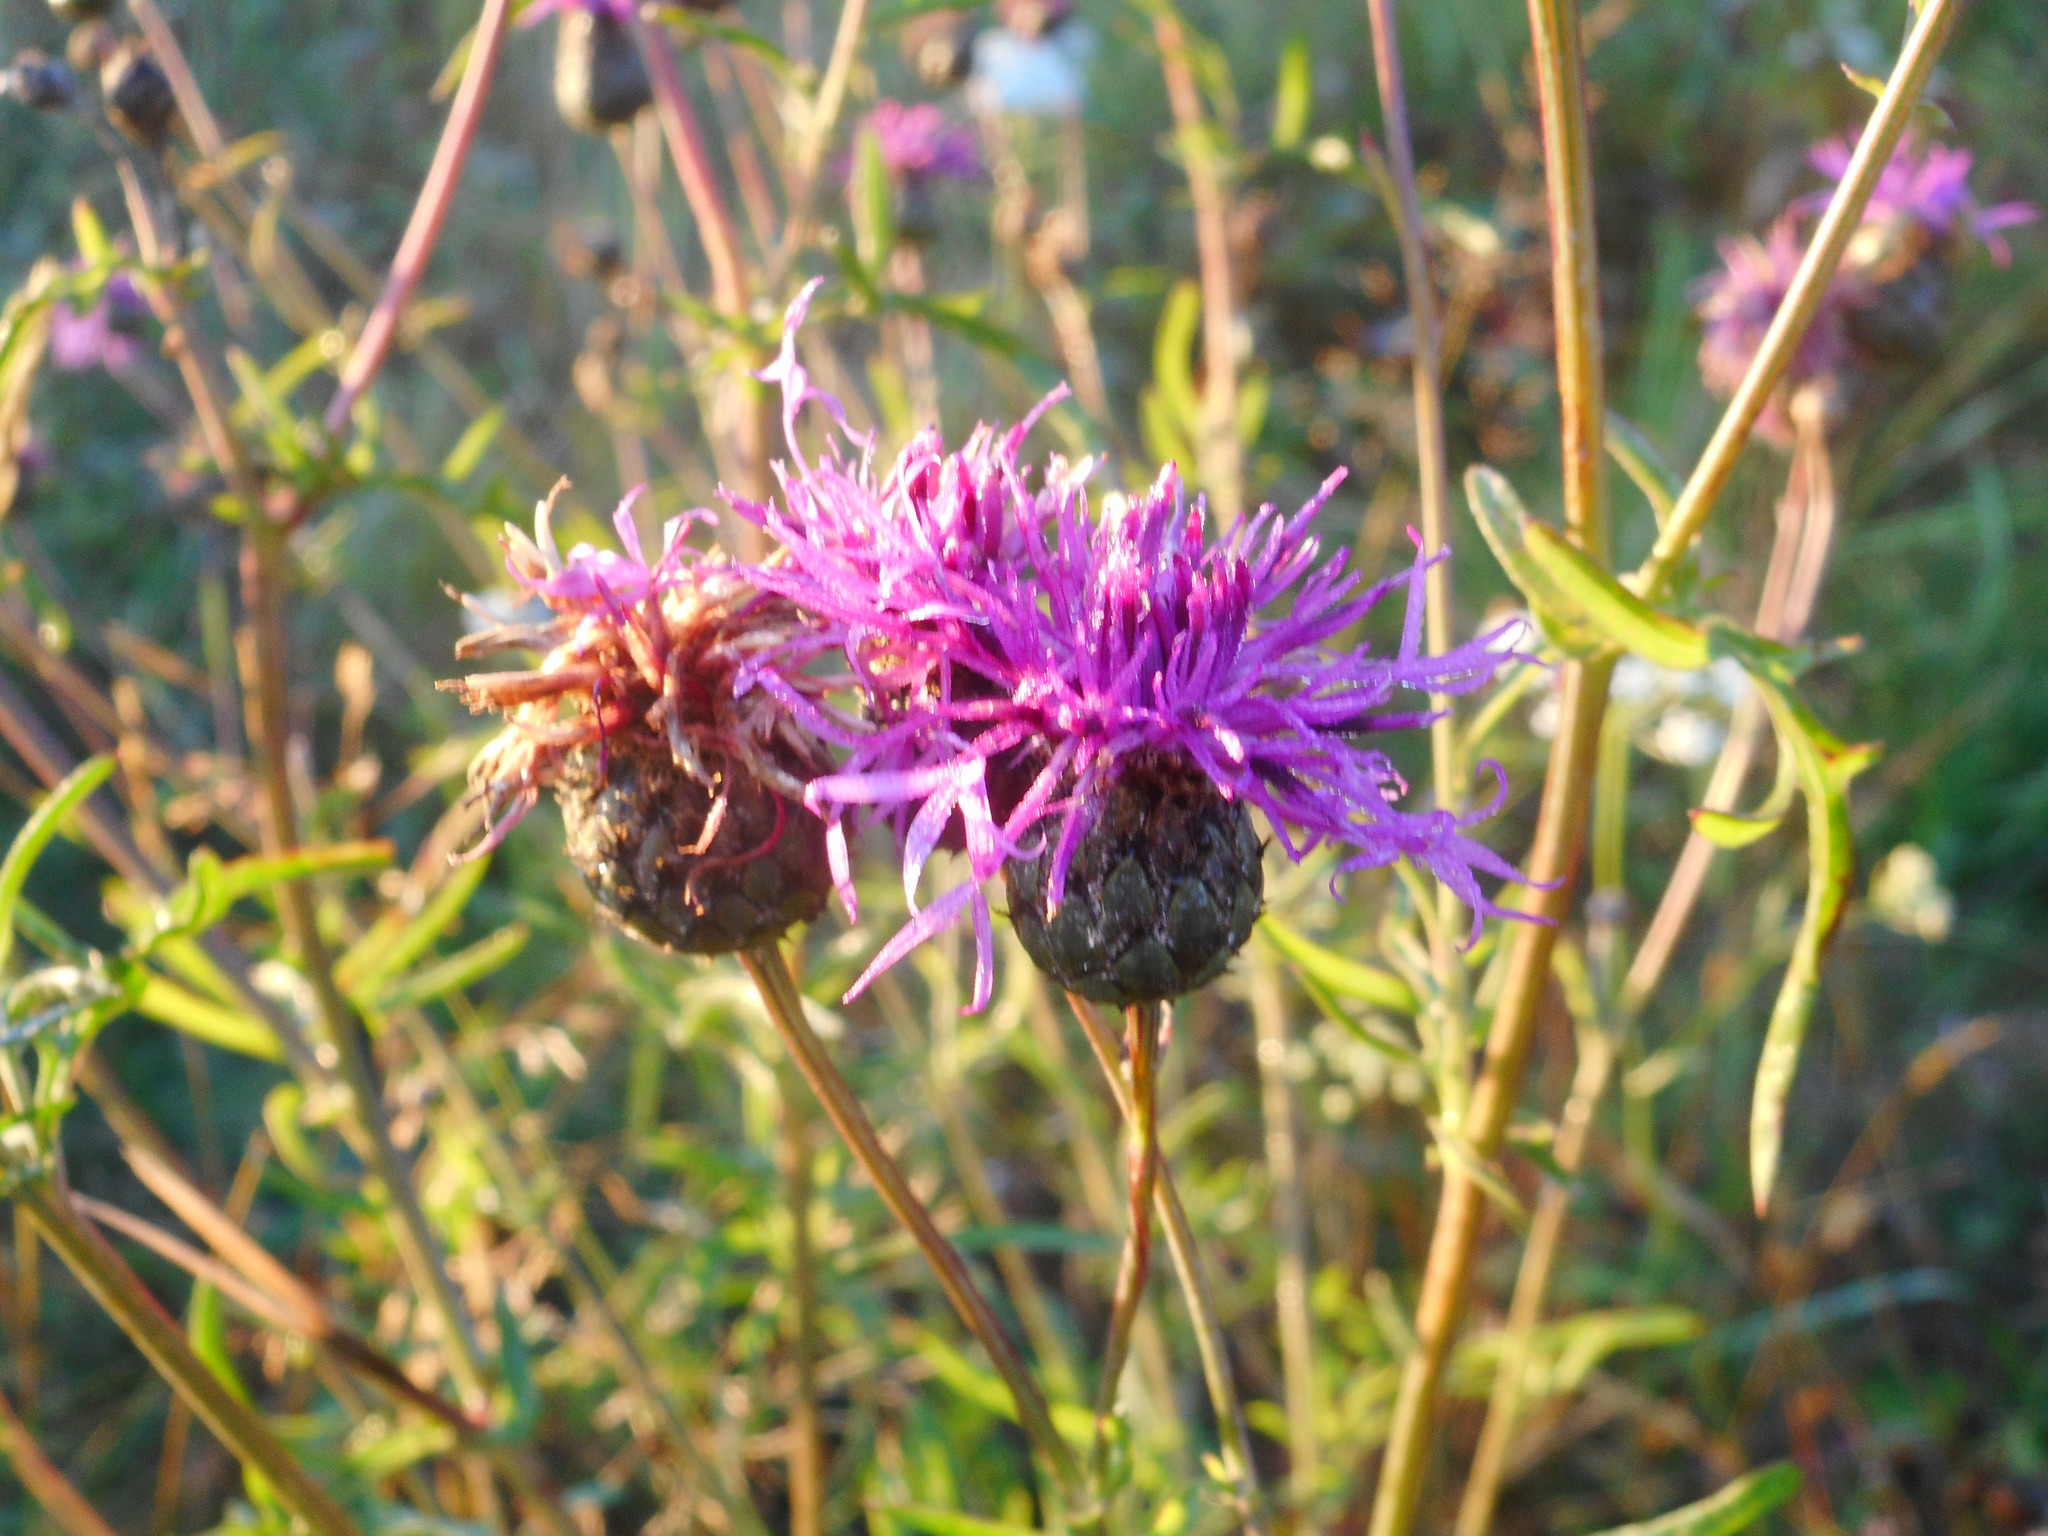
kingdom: Plantae
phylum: Tracheophyta
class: Magnoliopsida
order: Asterales
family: Asteraceae
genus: Centaurea
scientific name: Centaurea scabiosa
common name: Greater knapweed
